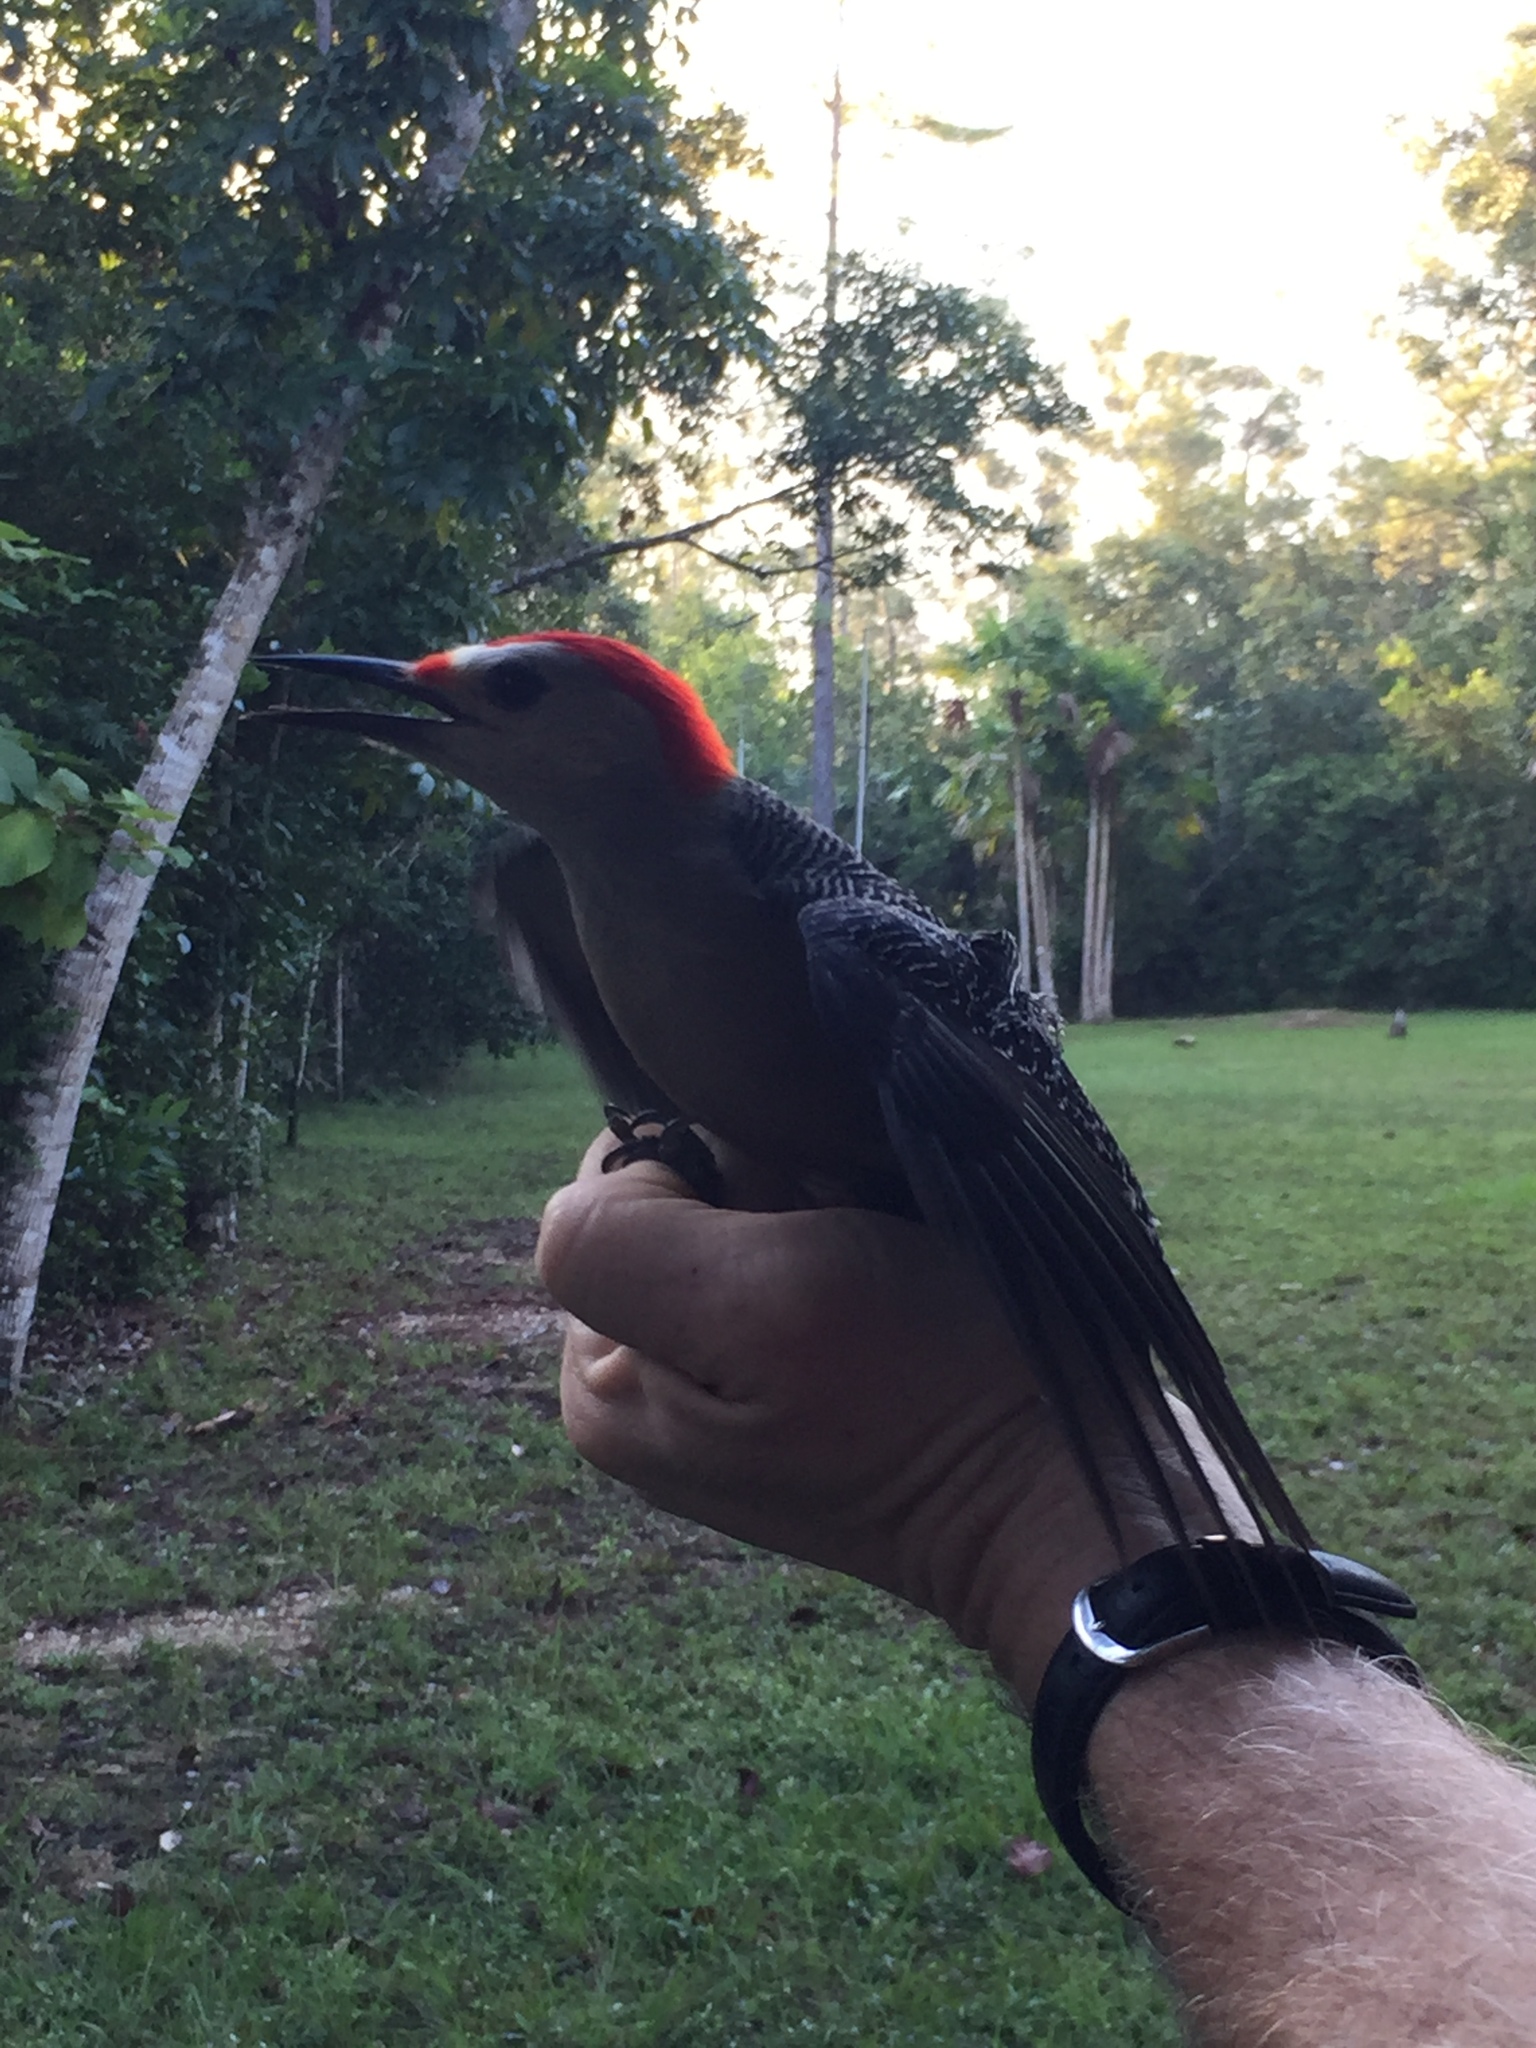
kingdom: Animalia
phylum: Chordata
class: Aves
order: Piciformes
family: Picidae
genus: Melanerpes
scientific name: Melanerpes aurifrons
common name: Golden-fronted woodpecker
